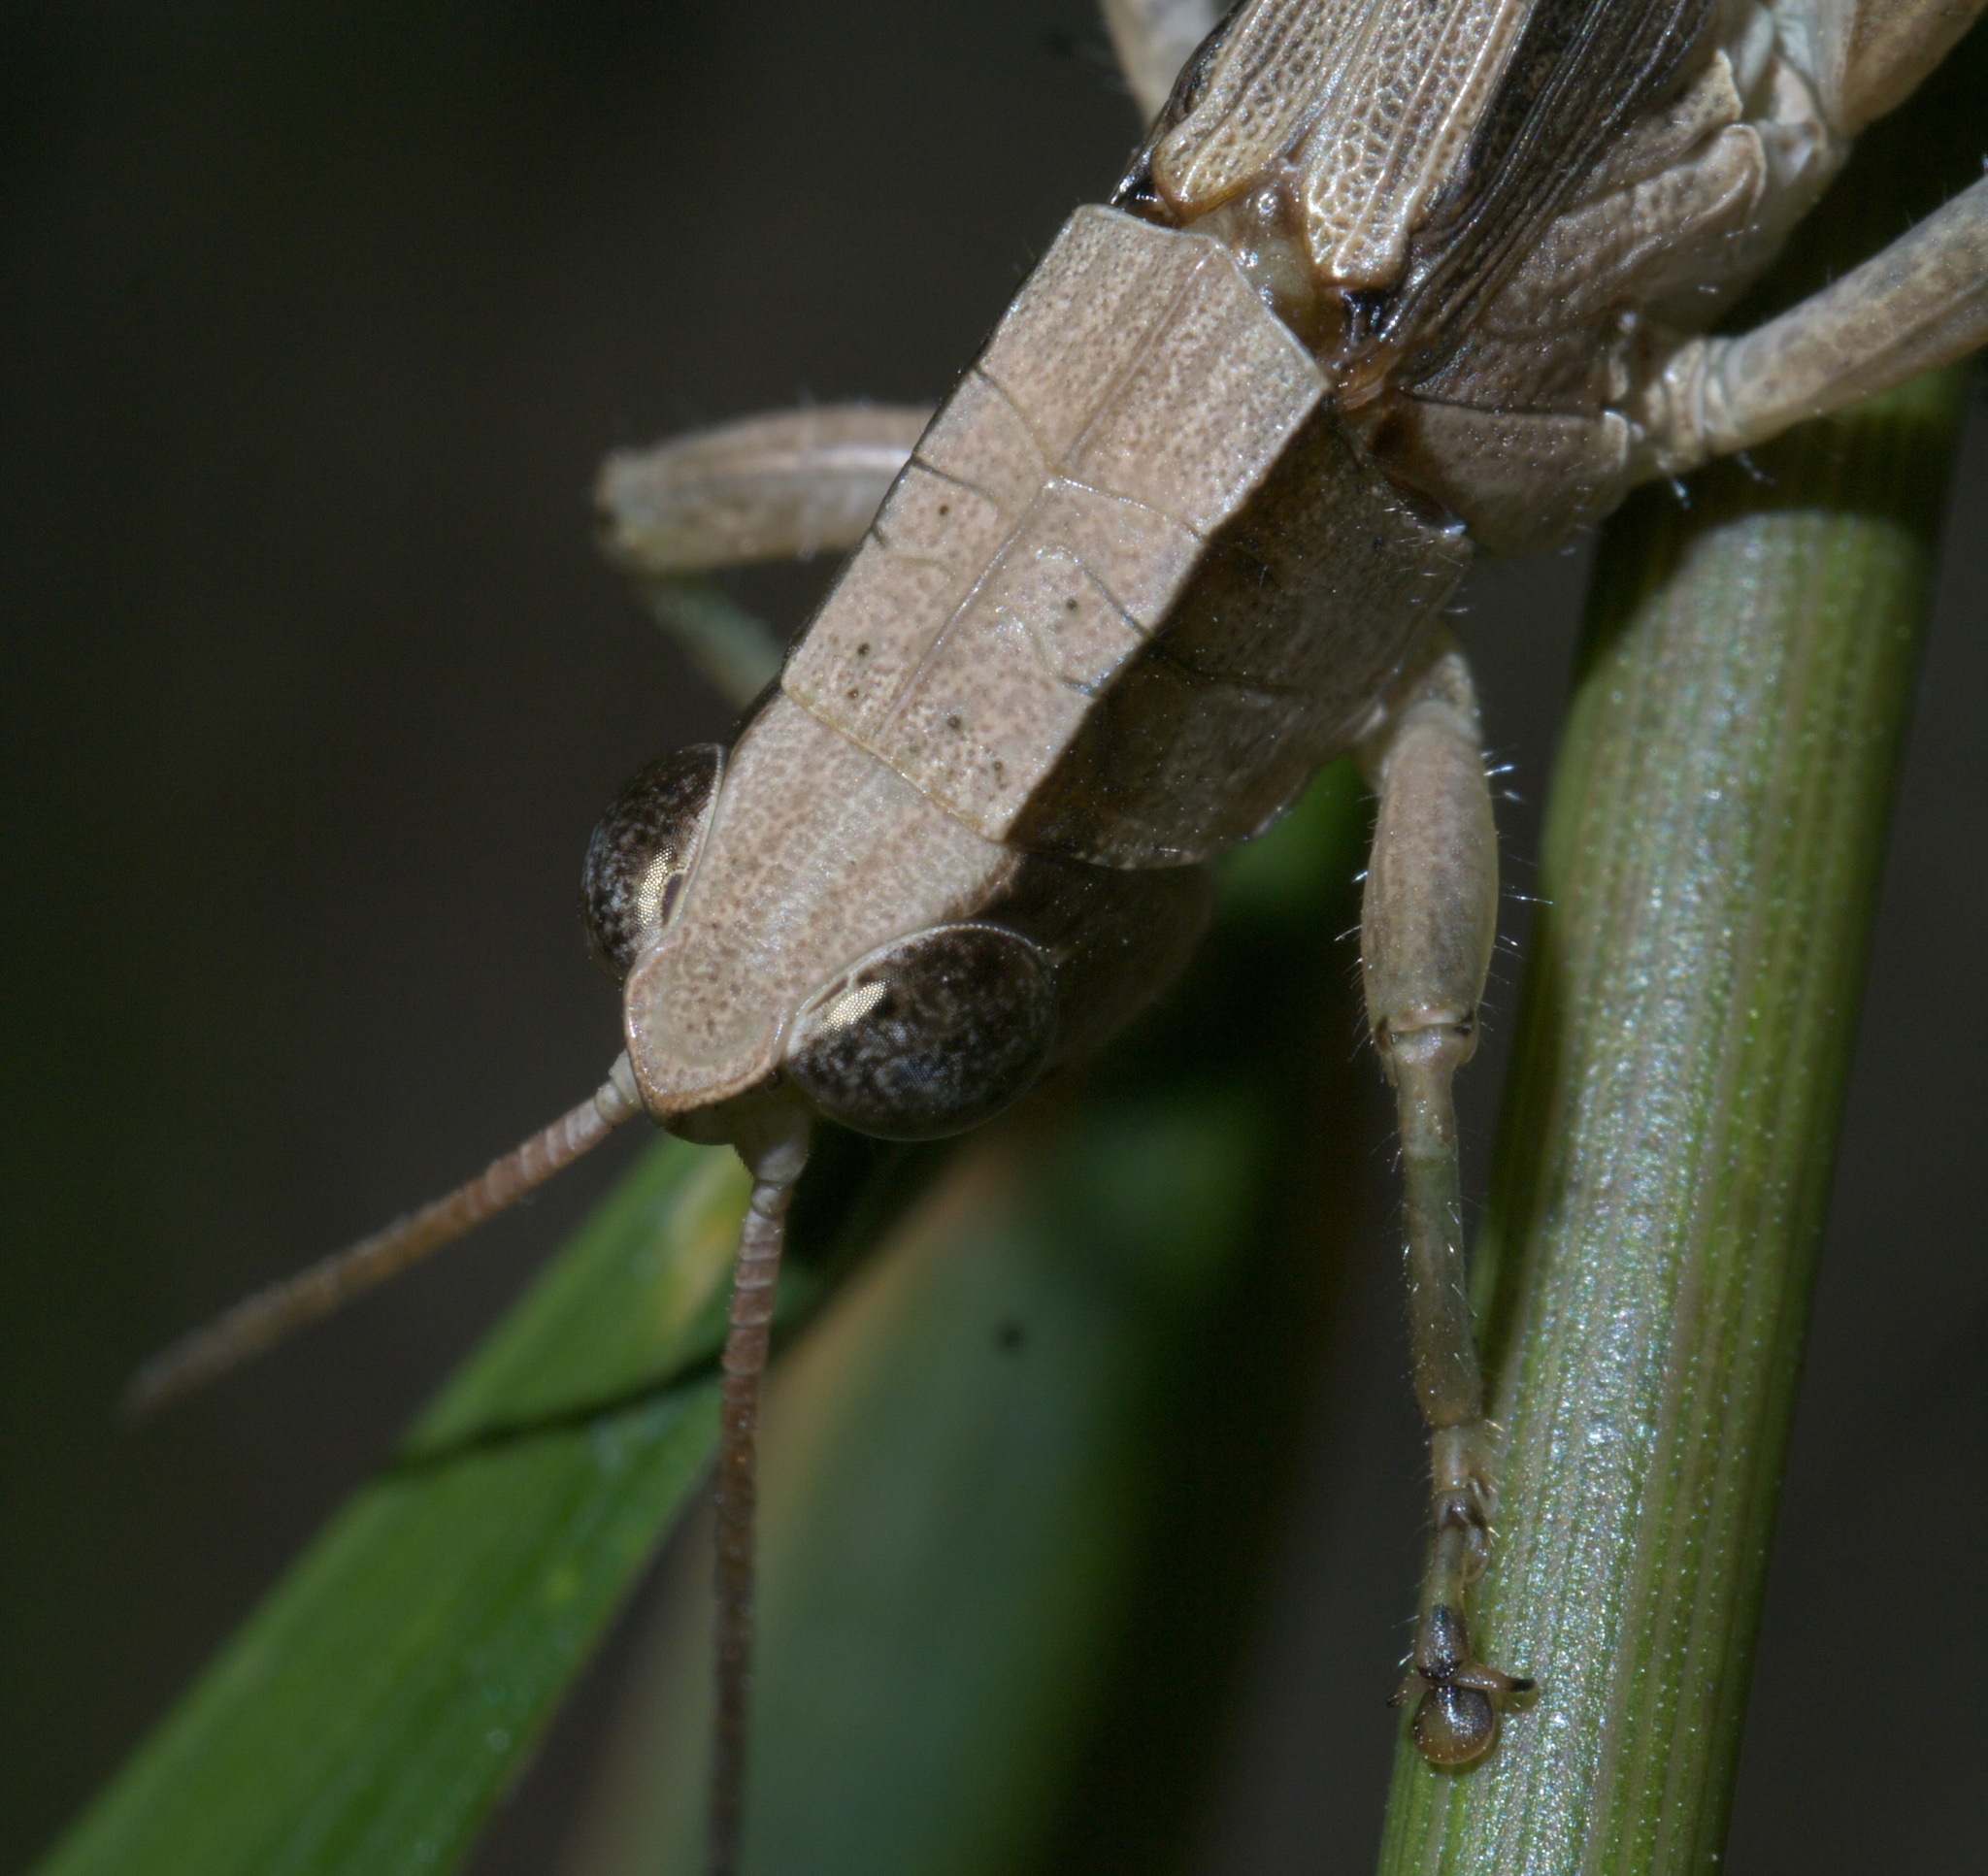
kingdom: Animalia
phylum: Arthropoda
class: Insecta
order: Orthoptera
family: Acrididae
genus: Dichromorpha
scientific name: Dichromorpha viridis
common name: Short-winged green grasshopper
